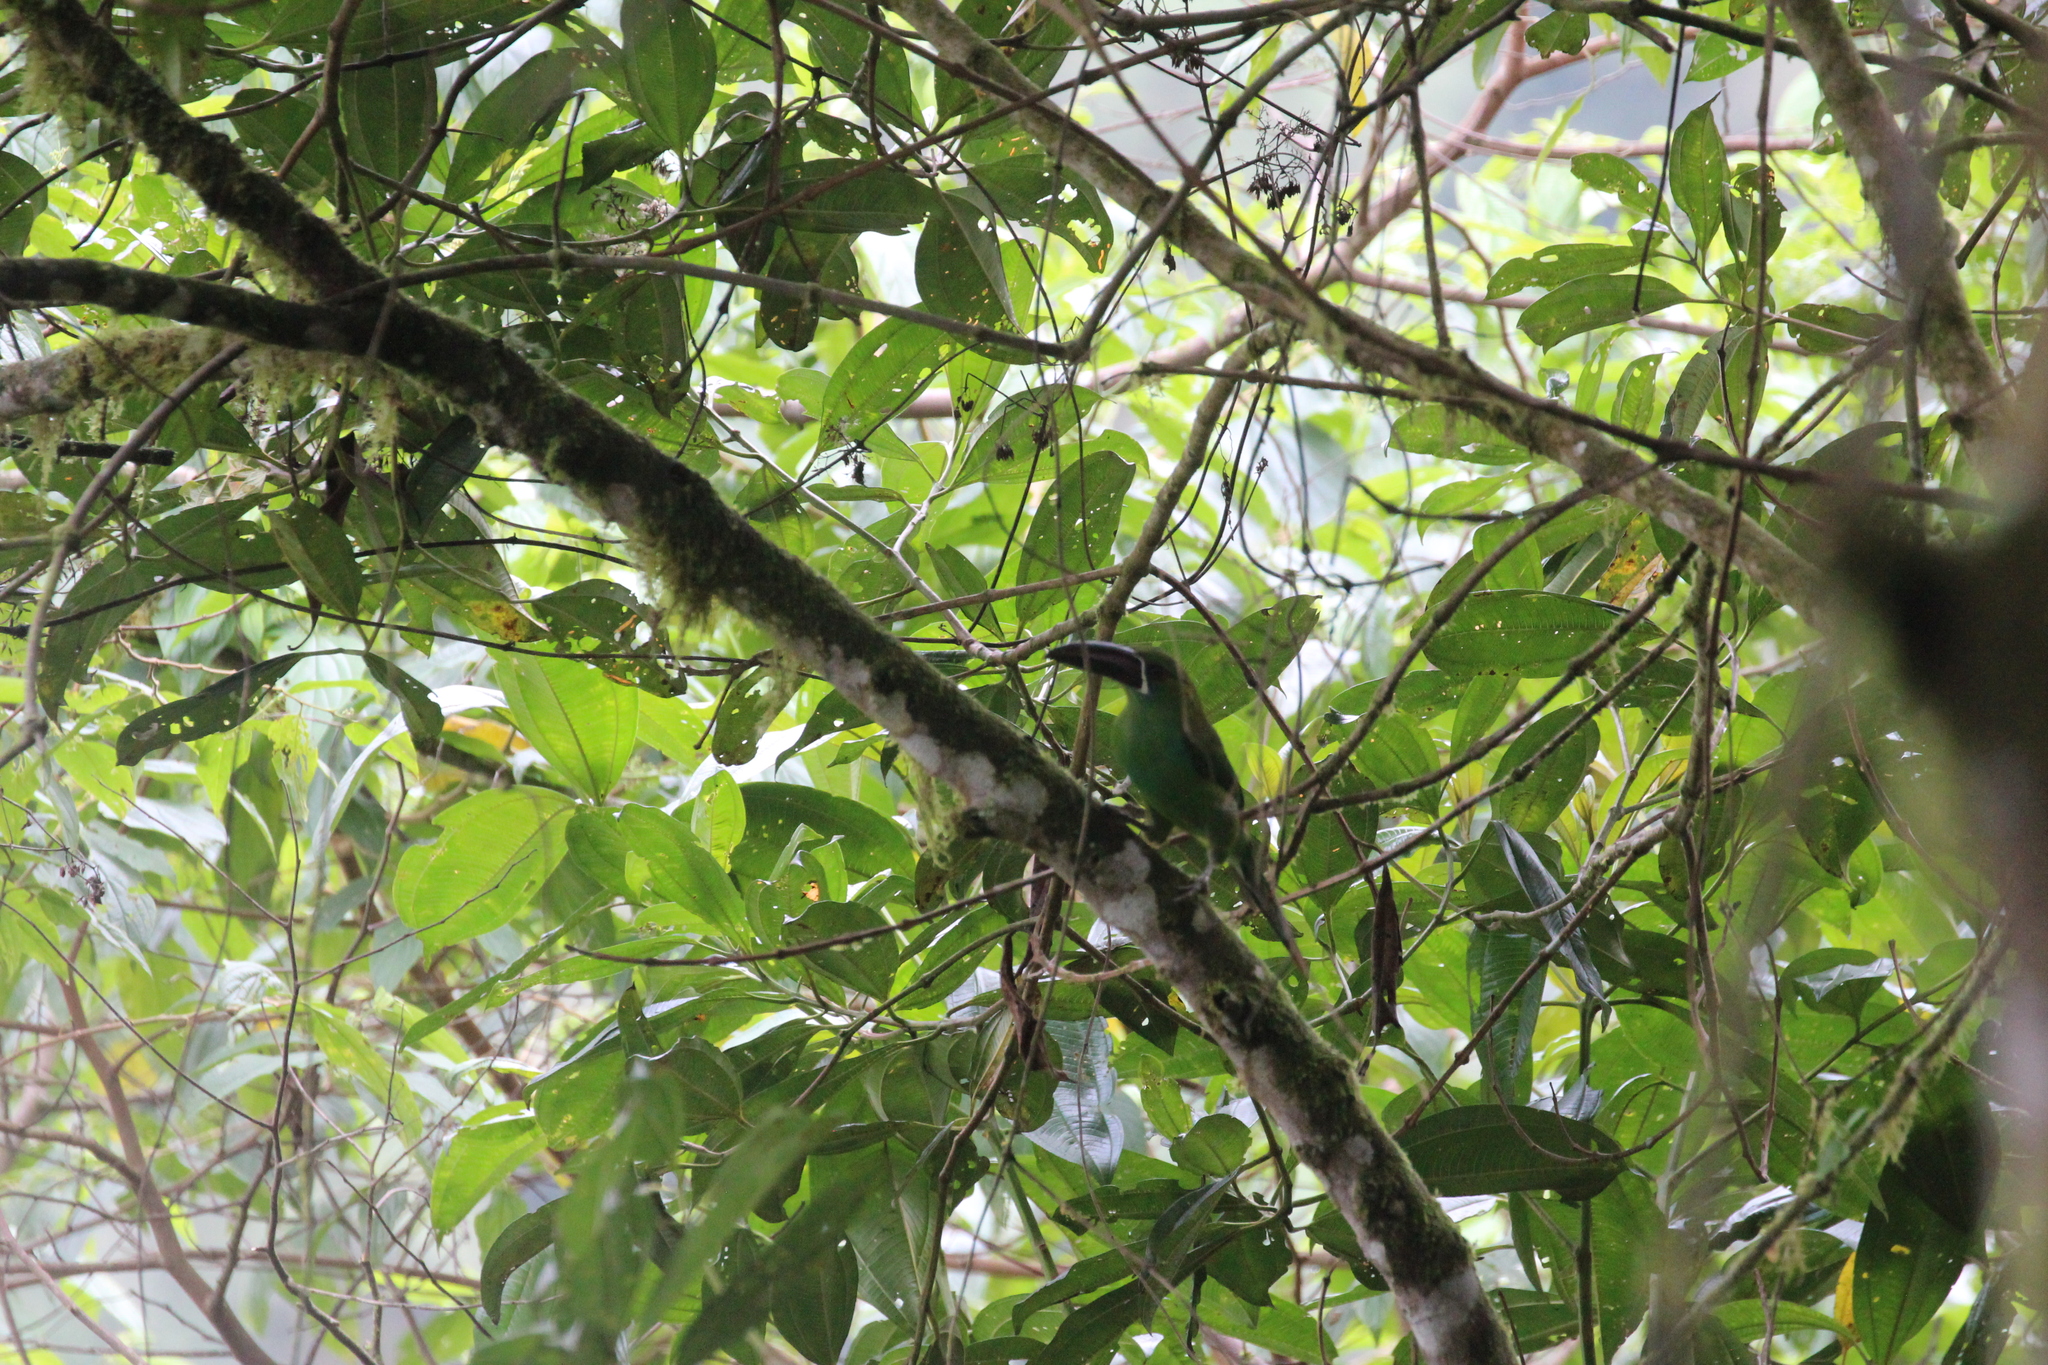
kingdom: Animalia
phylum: Chordata
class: Aves
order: Piciformes
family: Ramphastidae
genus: Aulacorhynchus
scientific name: Aulacorhynchus haematopygus
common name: Crimson-rumped toucanet
